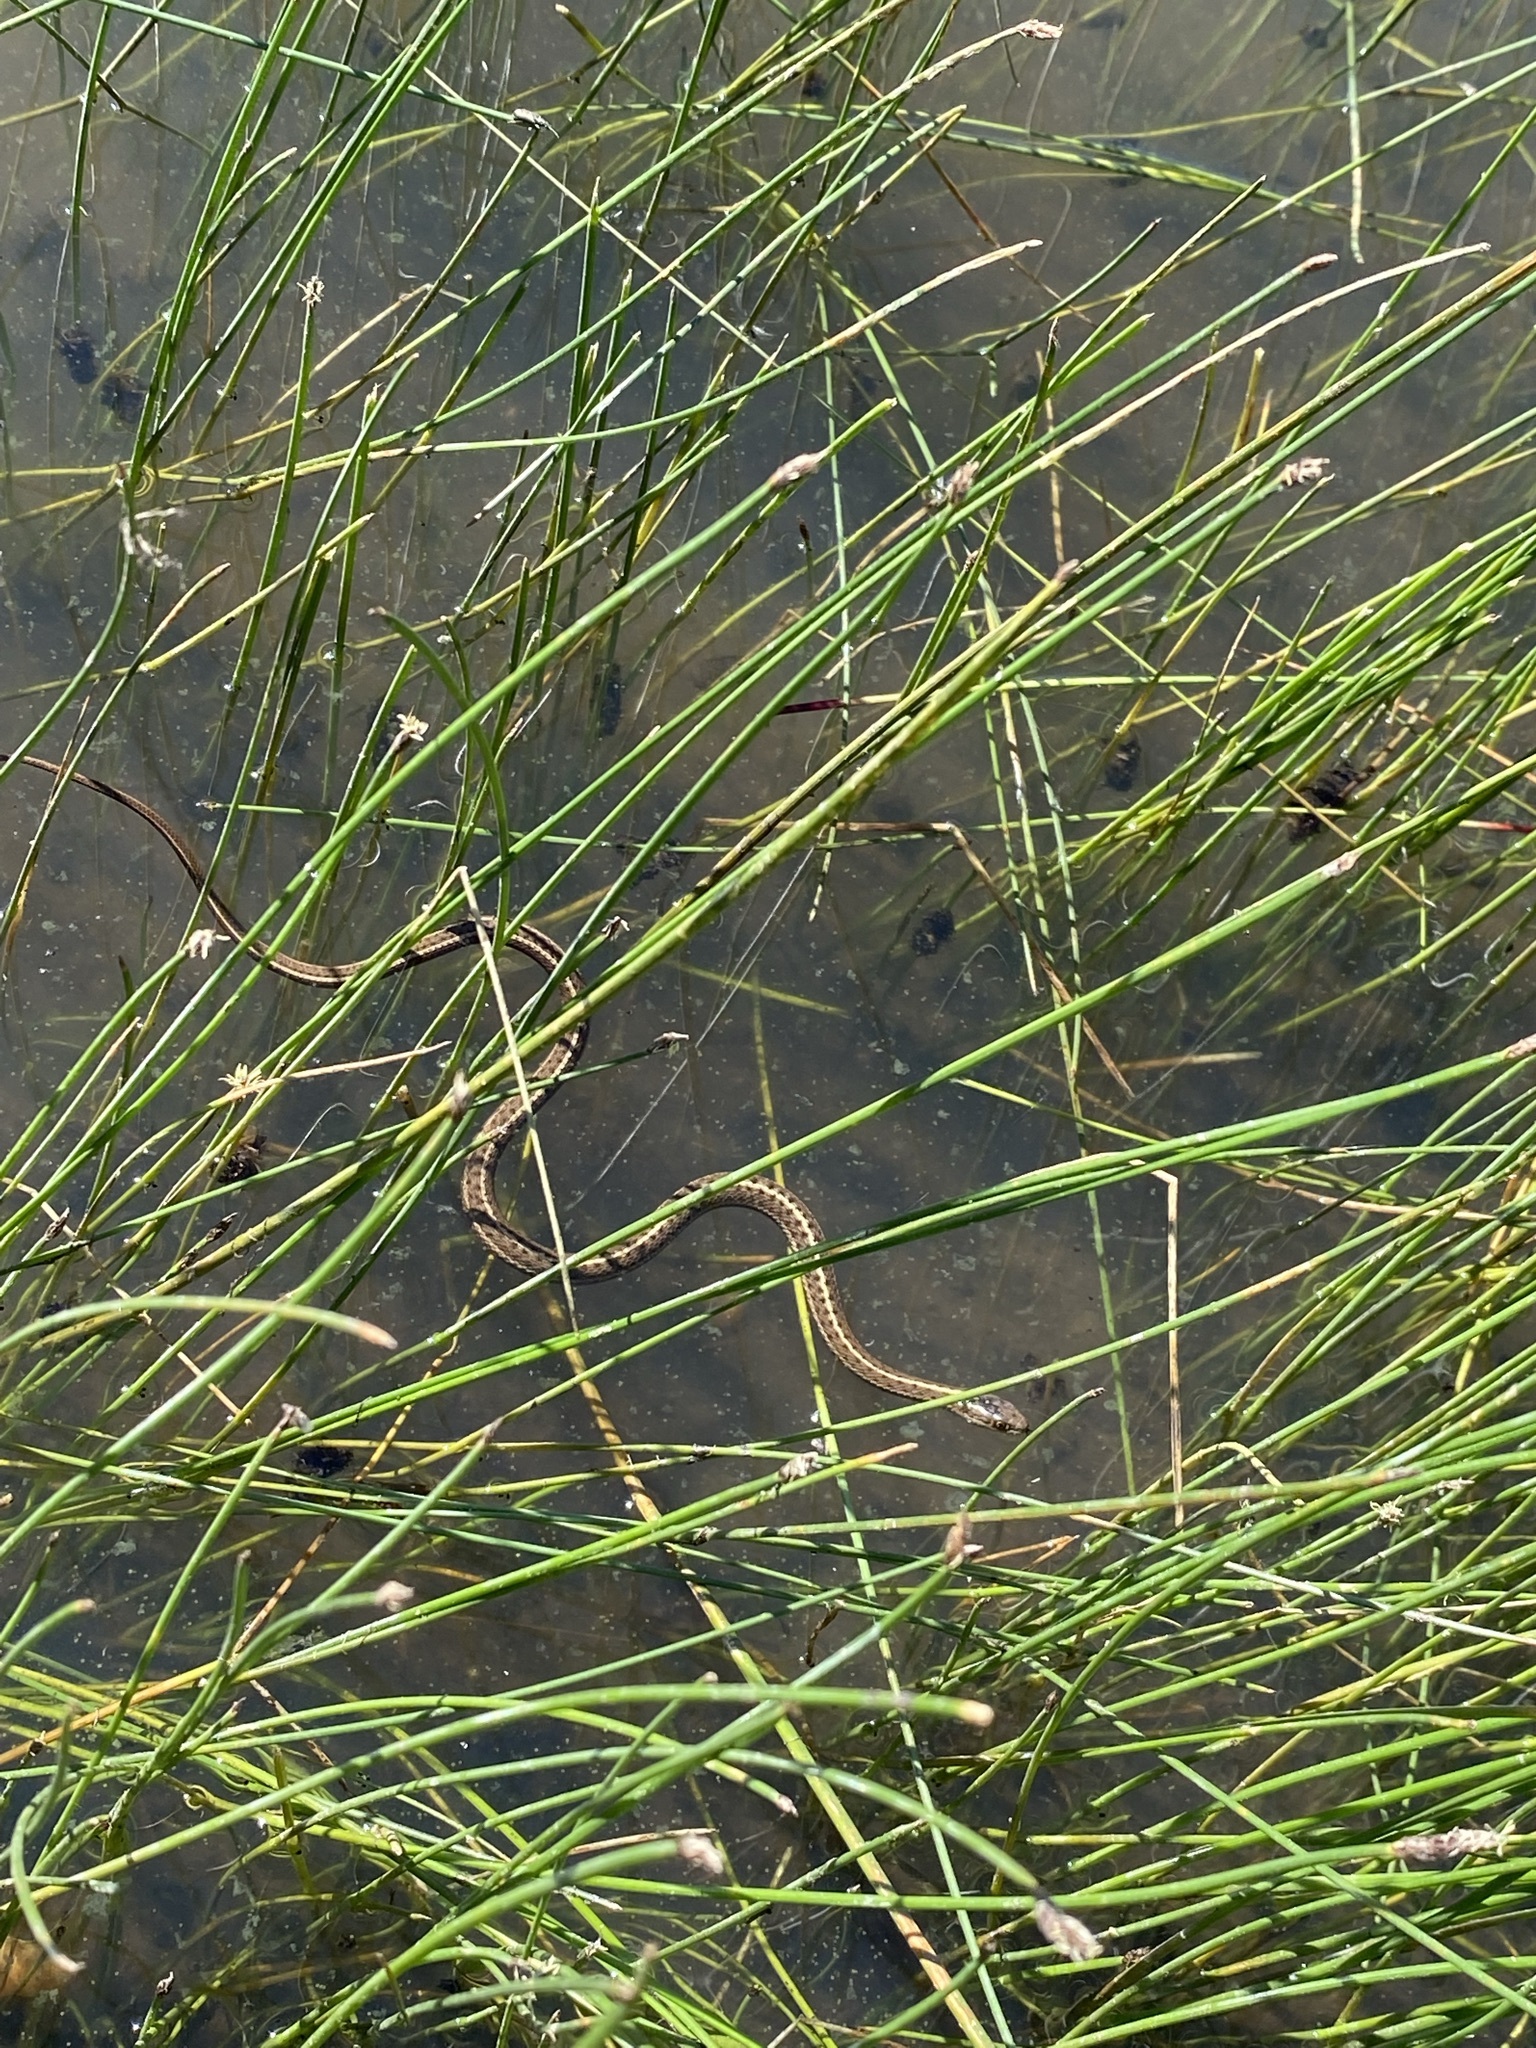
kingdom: Animalia
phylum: Chordata
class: Squamata
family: Colubridae
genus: Thamnophis
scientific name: Thamnophis elegans
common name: Western terrestrial garter snake
